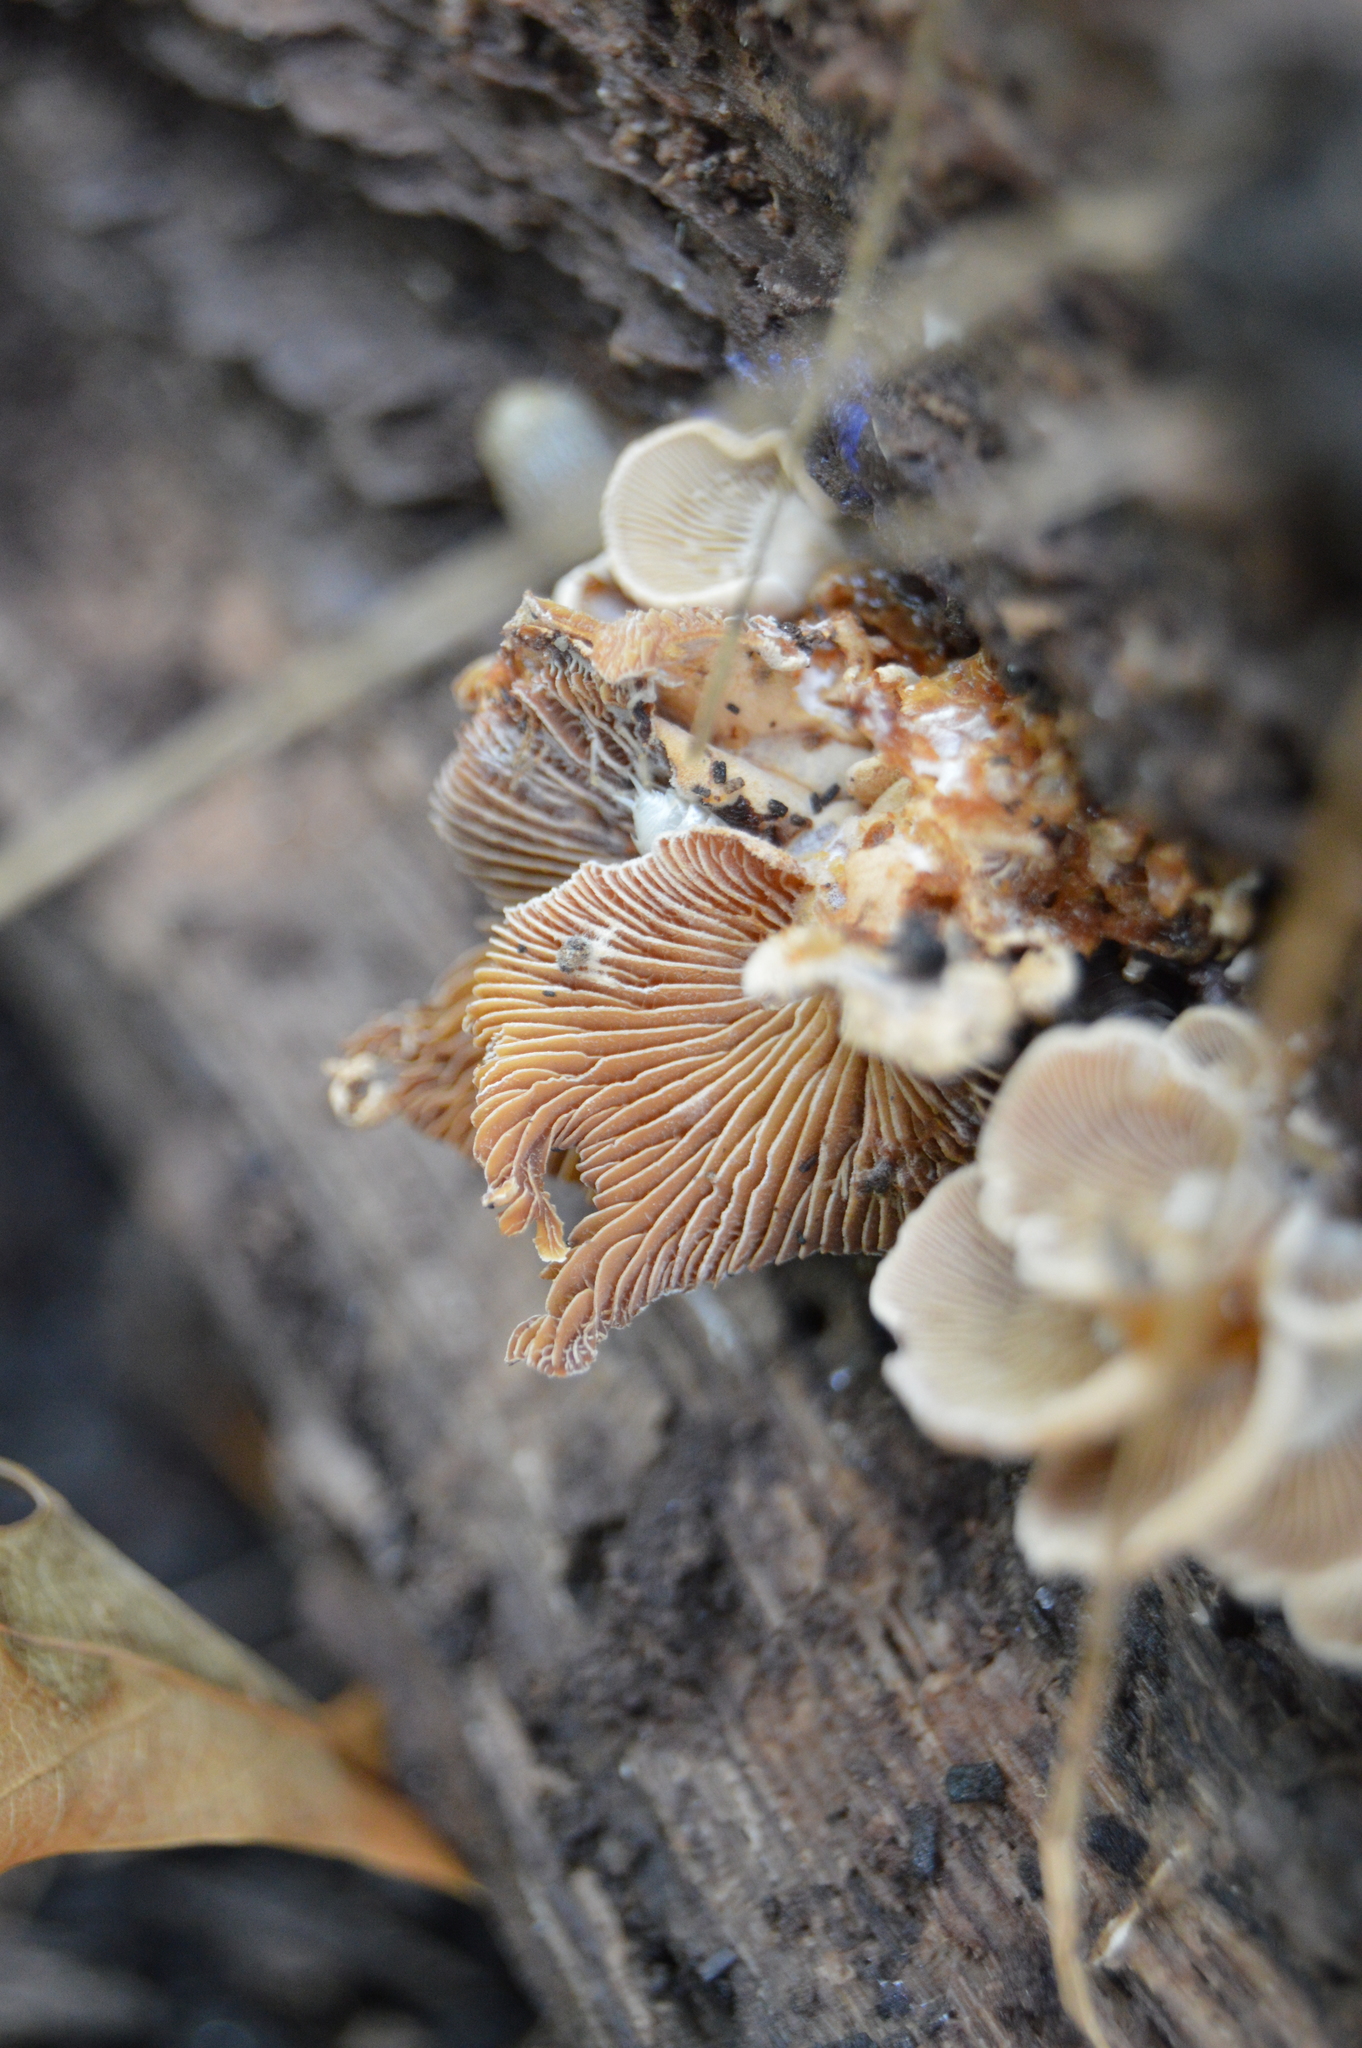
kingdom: Fungi
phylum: Basidiomycota
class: Agaricomycetes
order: Agaricales
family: Mycenaceae
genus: Panellus
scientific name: Panellus stipticus
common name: Bitter oysterling
